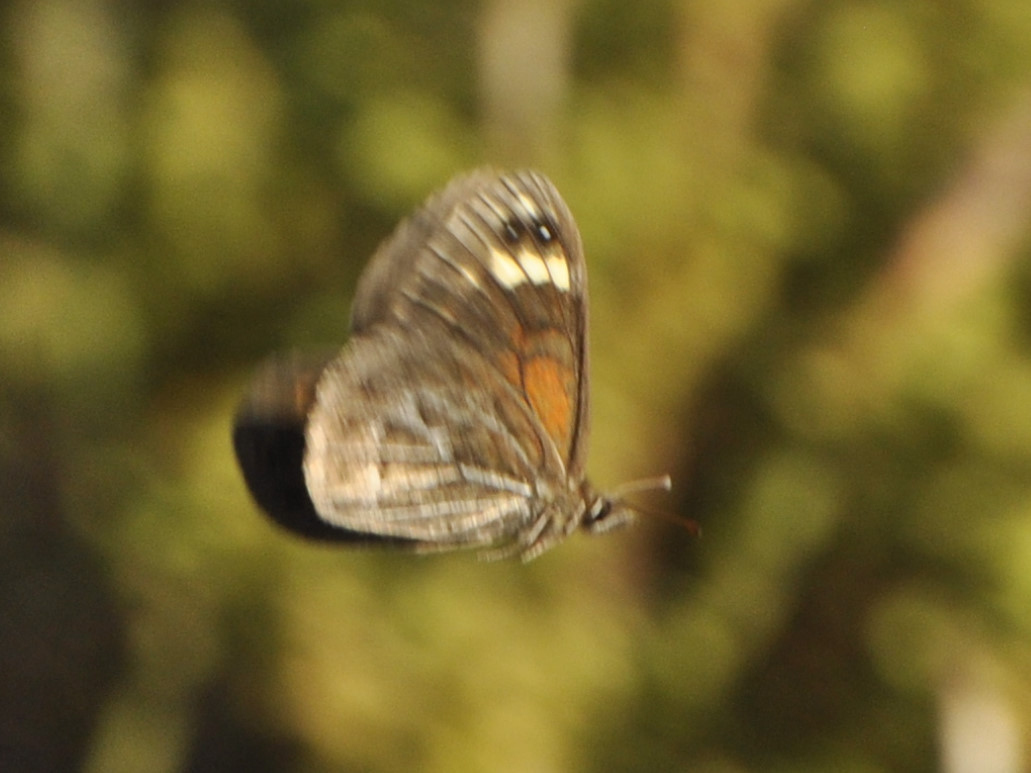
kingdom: Animalia
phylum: Arthropoda
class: Insecta
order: Lepidoptera
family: Nymphalidae
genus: Torynesis
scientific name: Torynesis hawequas
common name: Hawequas widow
